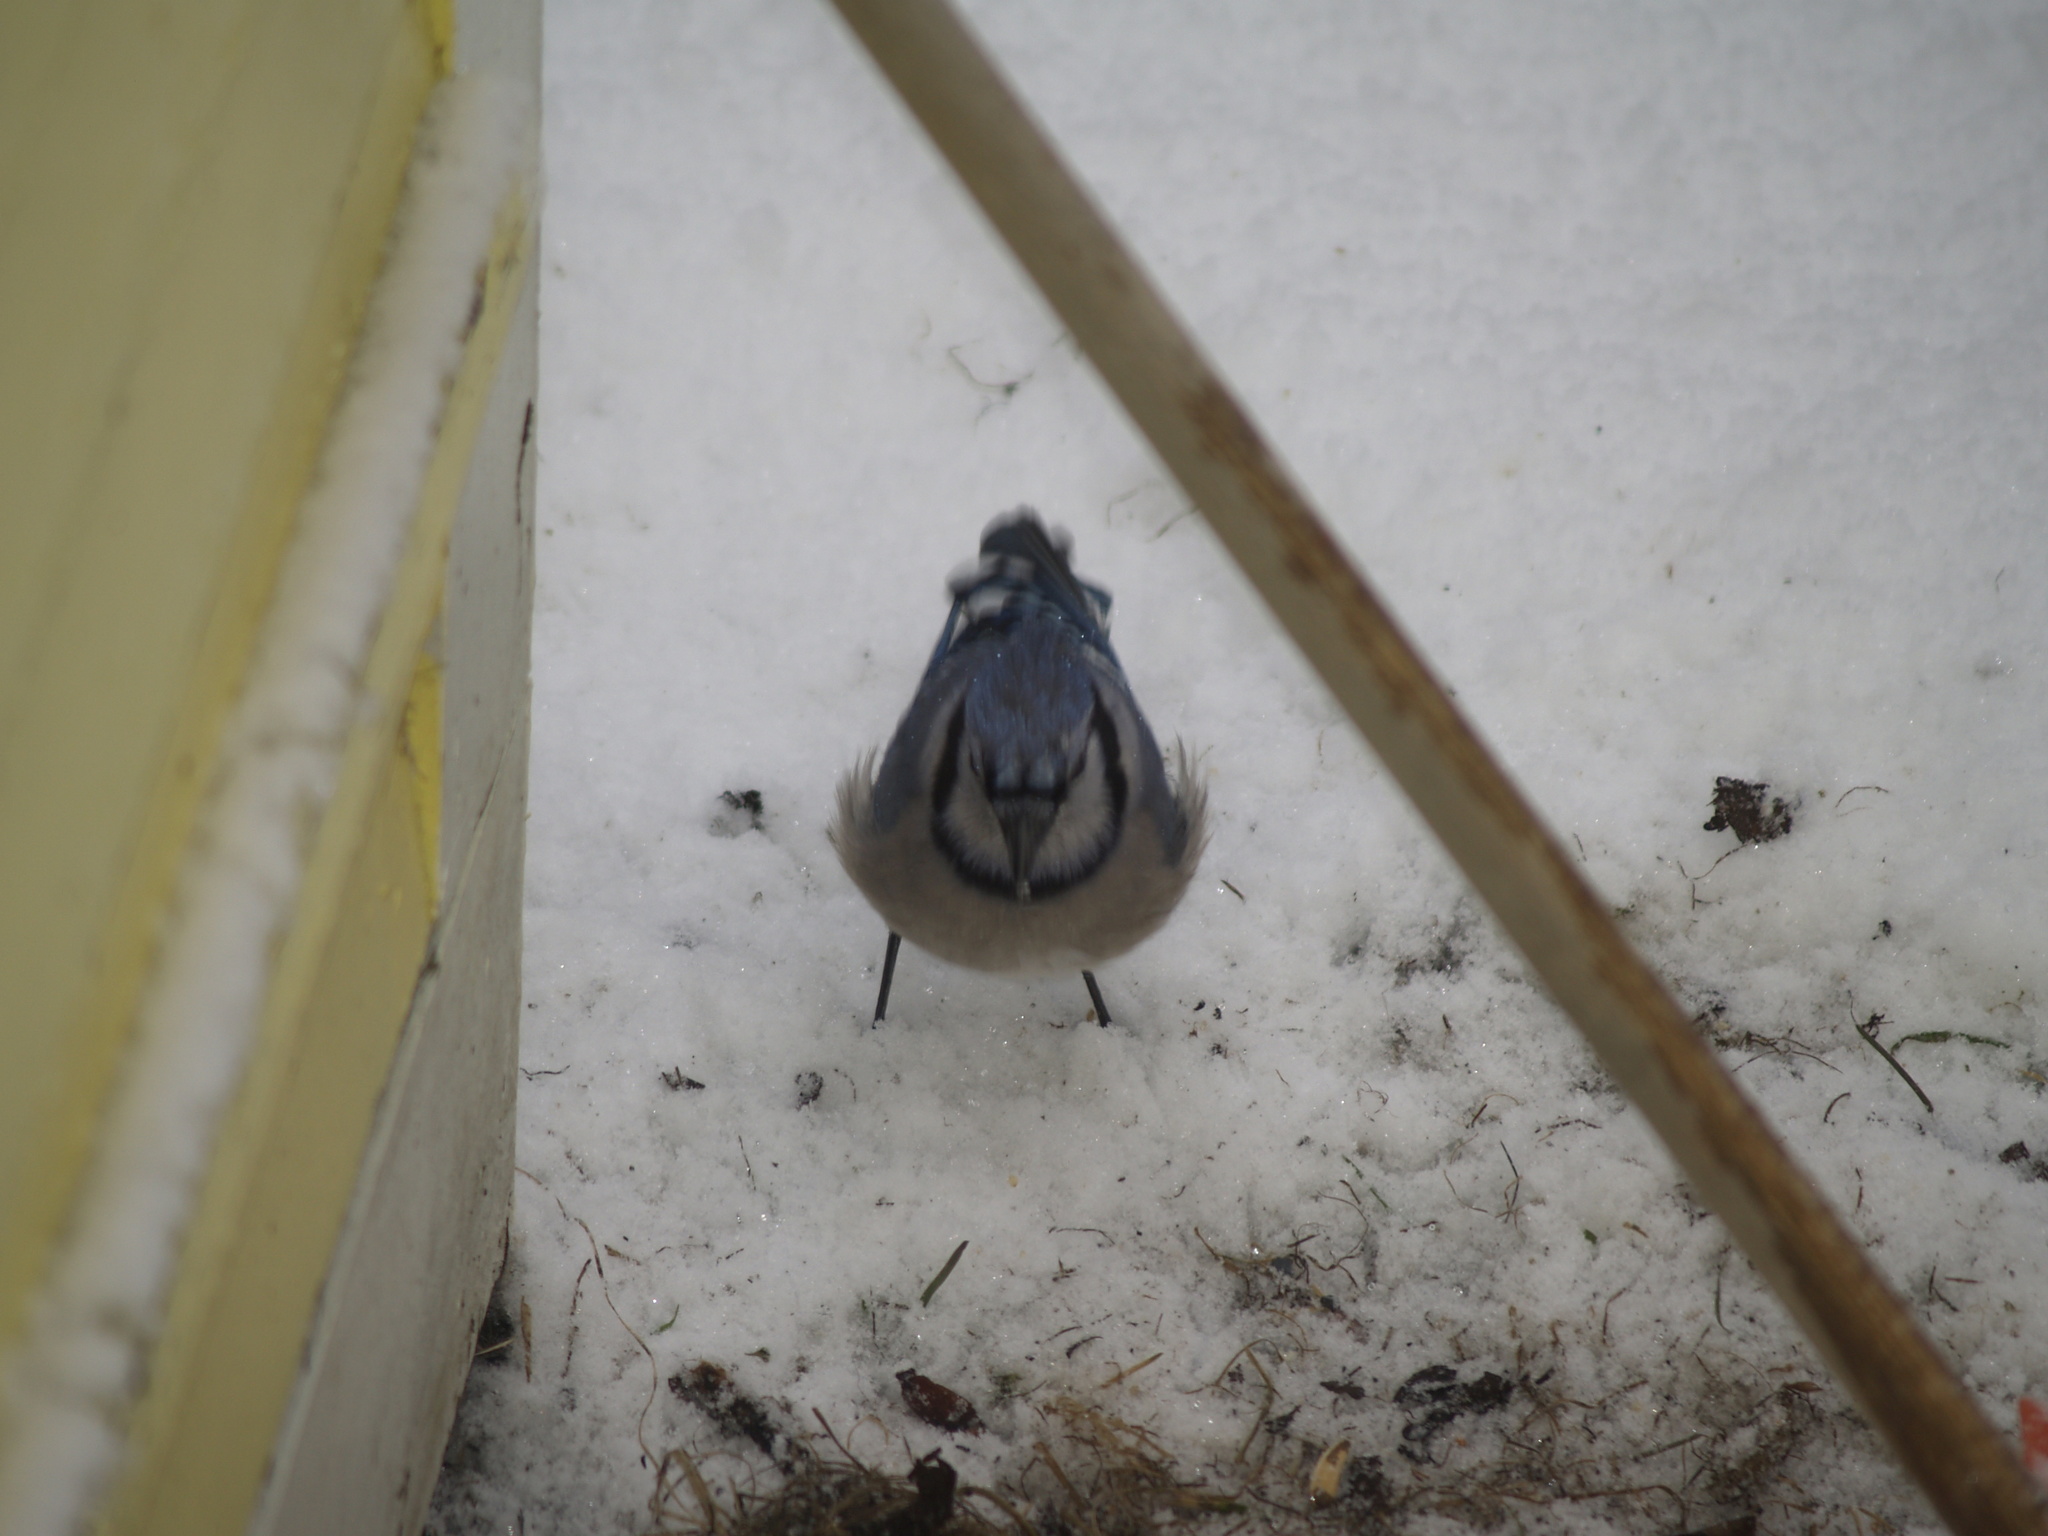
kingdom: Animalia
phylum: Chordata
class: Aves
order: Passeriformes
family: Corvidae
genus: Cyanocitta
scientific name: Cyanocitta cristata
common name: Blue jay
